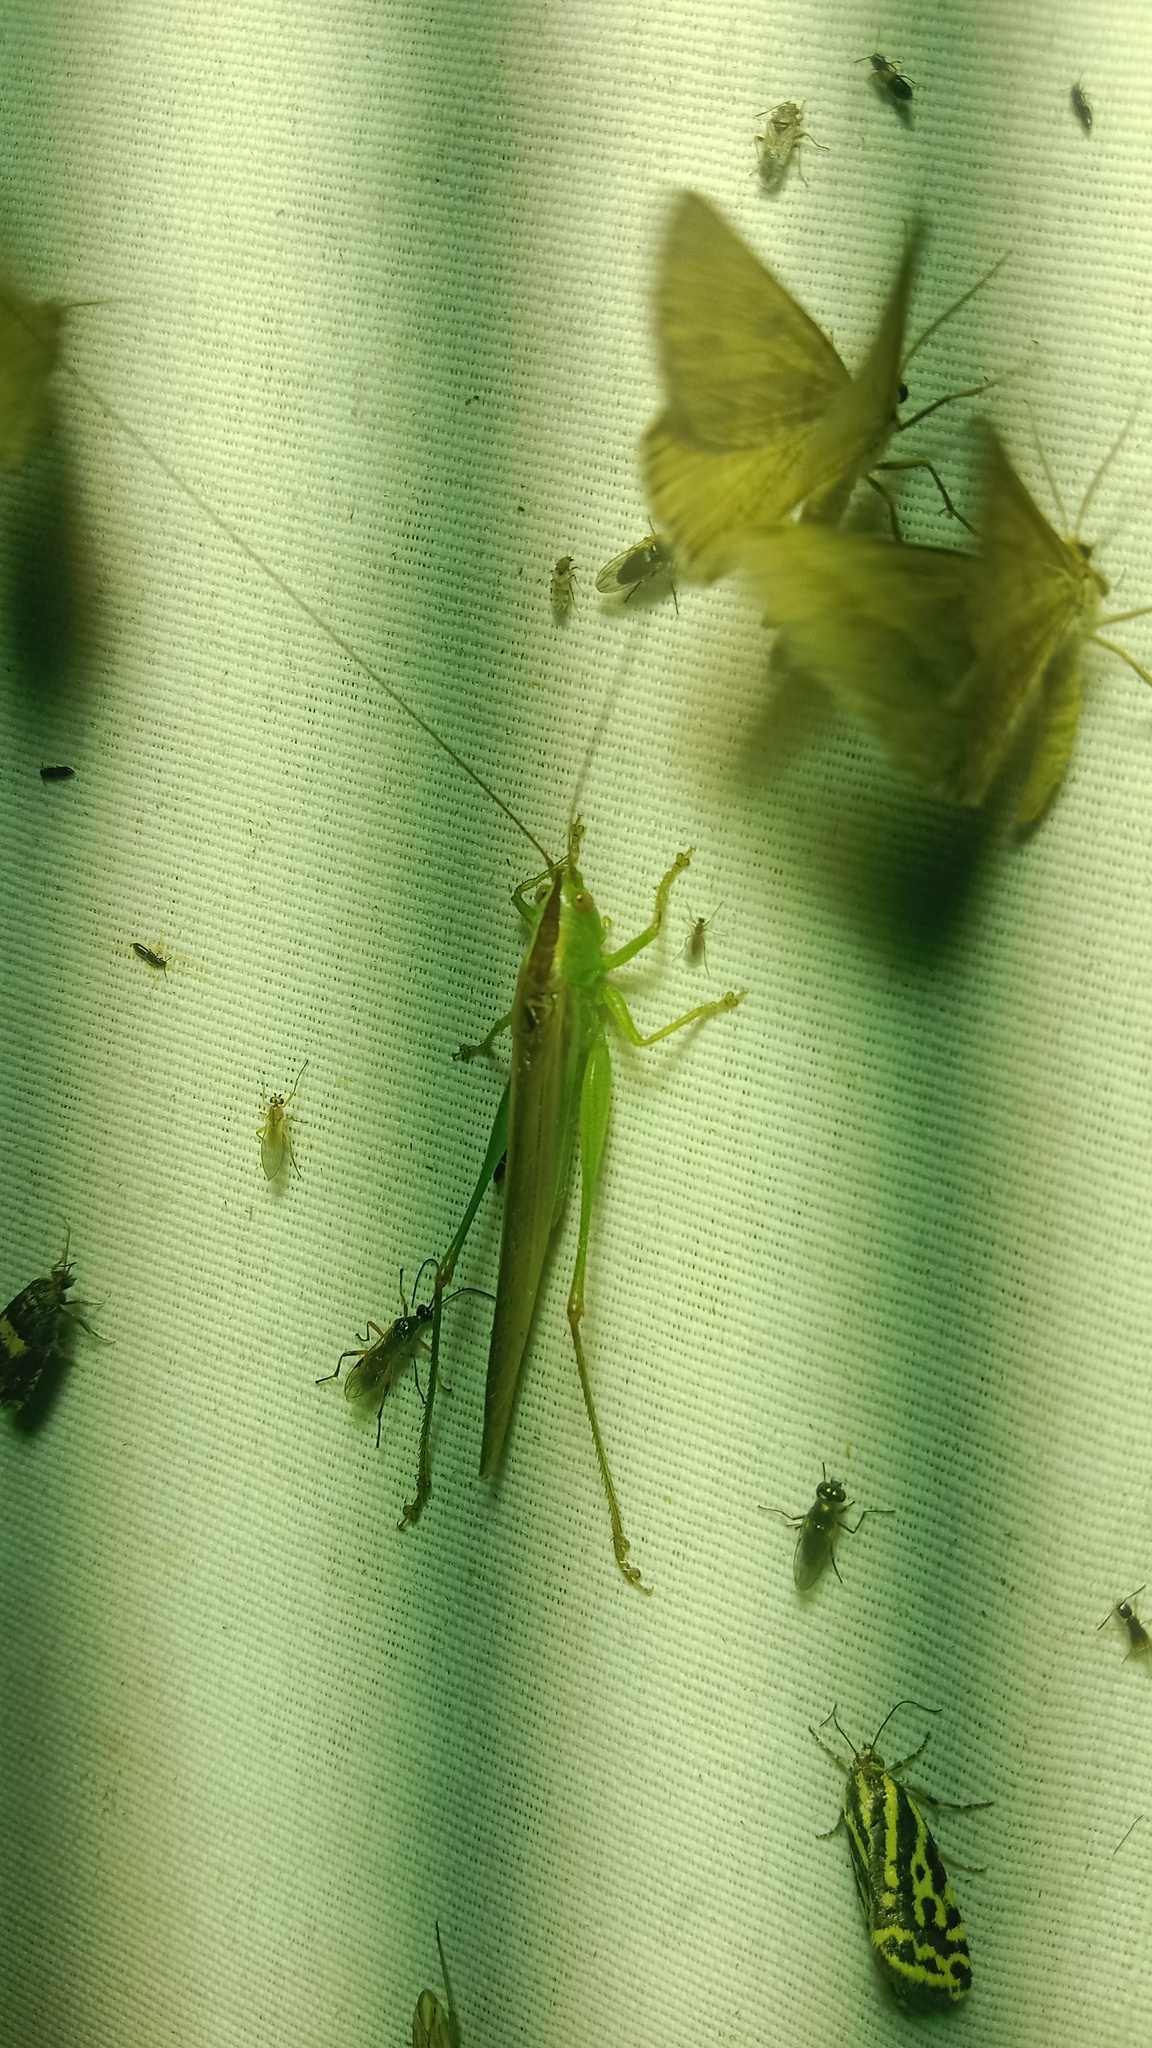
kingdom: Animalia
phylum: Arthropoda
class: Insecta
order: Orthoptera
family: Tettigoniidae
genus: Conocephalus
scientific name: Conocephalus fuscus
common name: Long-winged conehead
